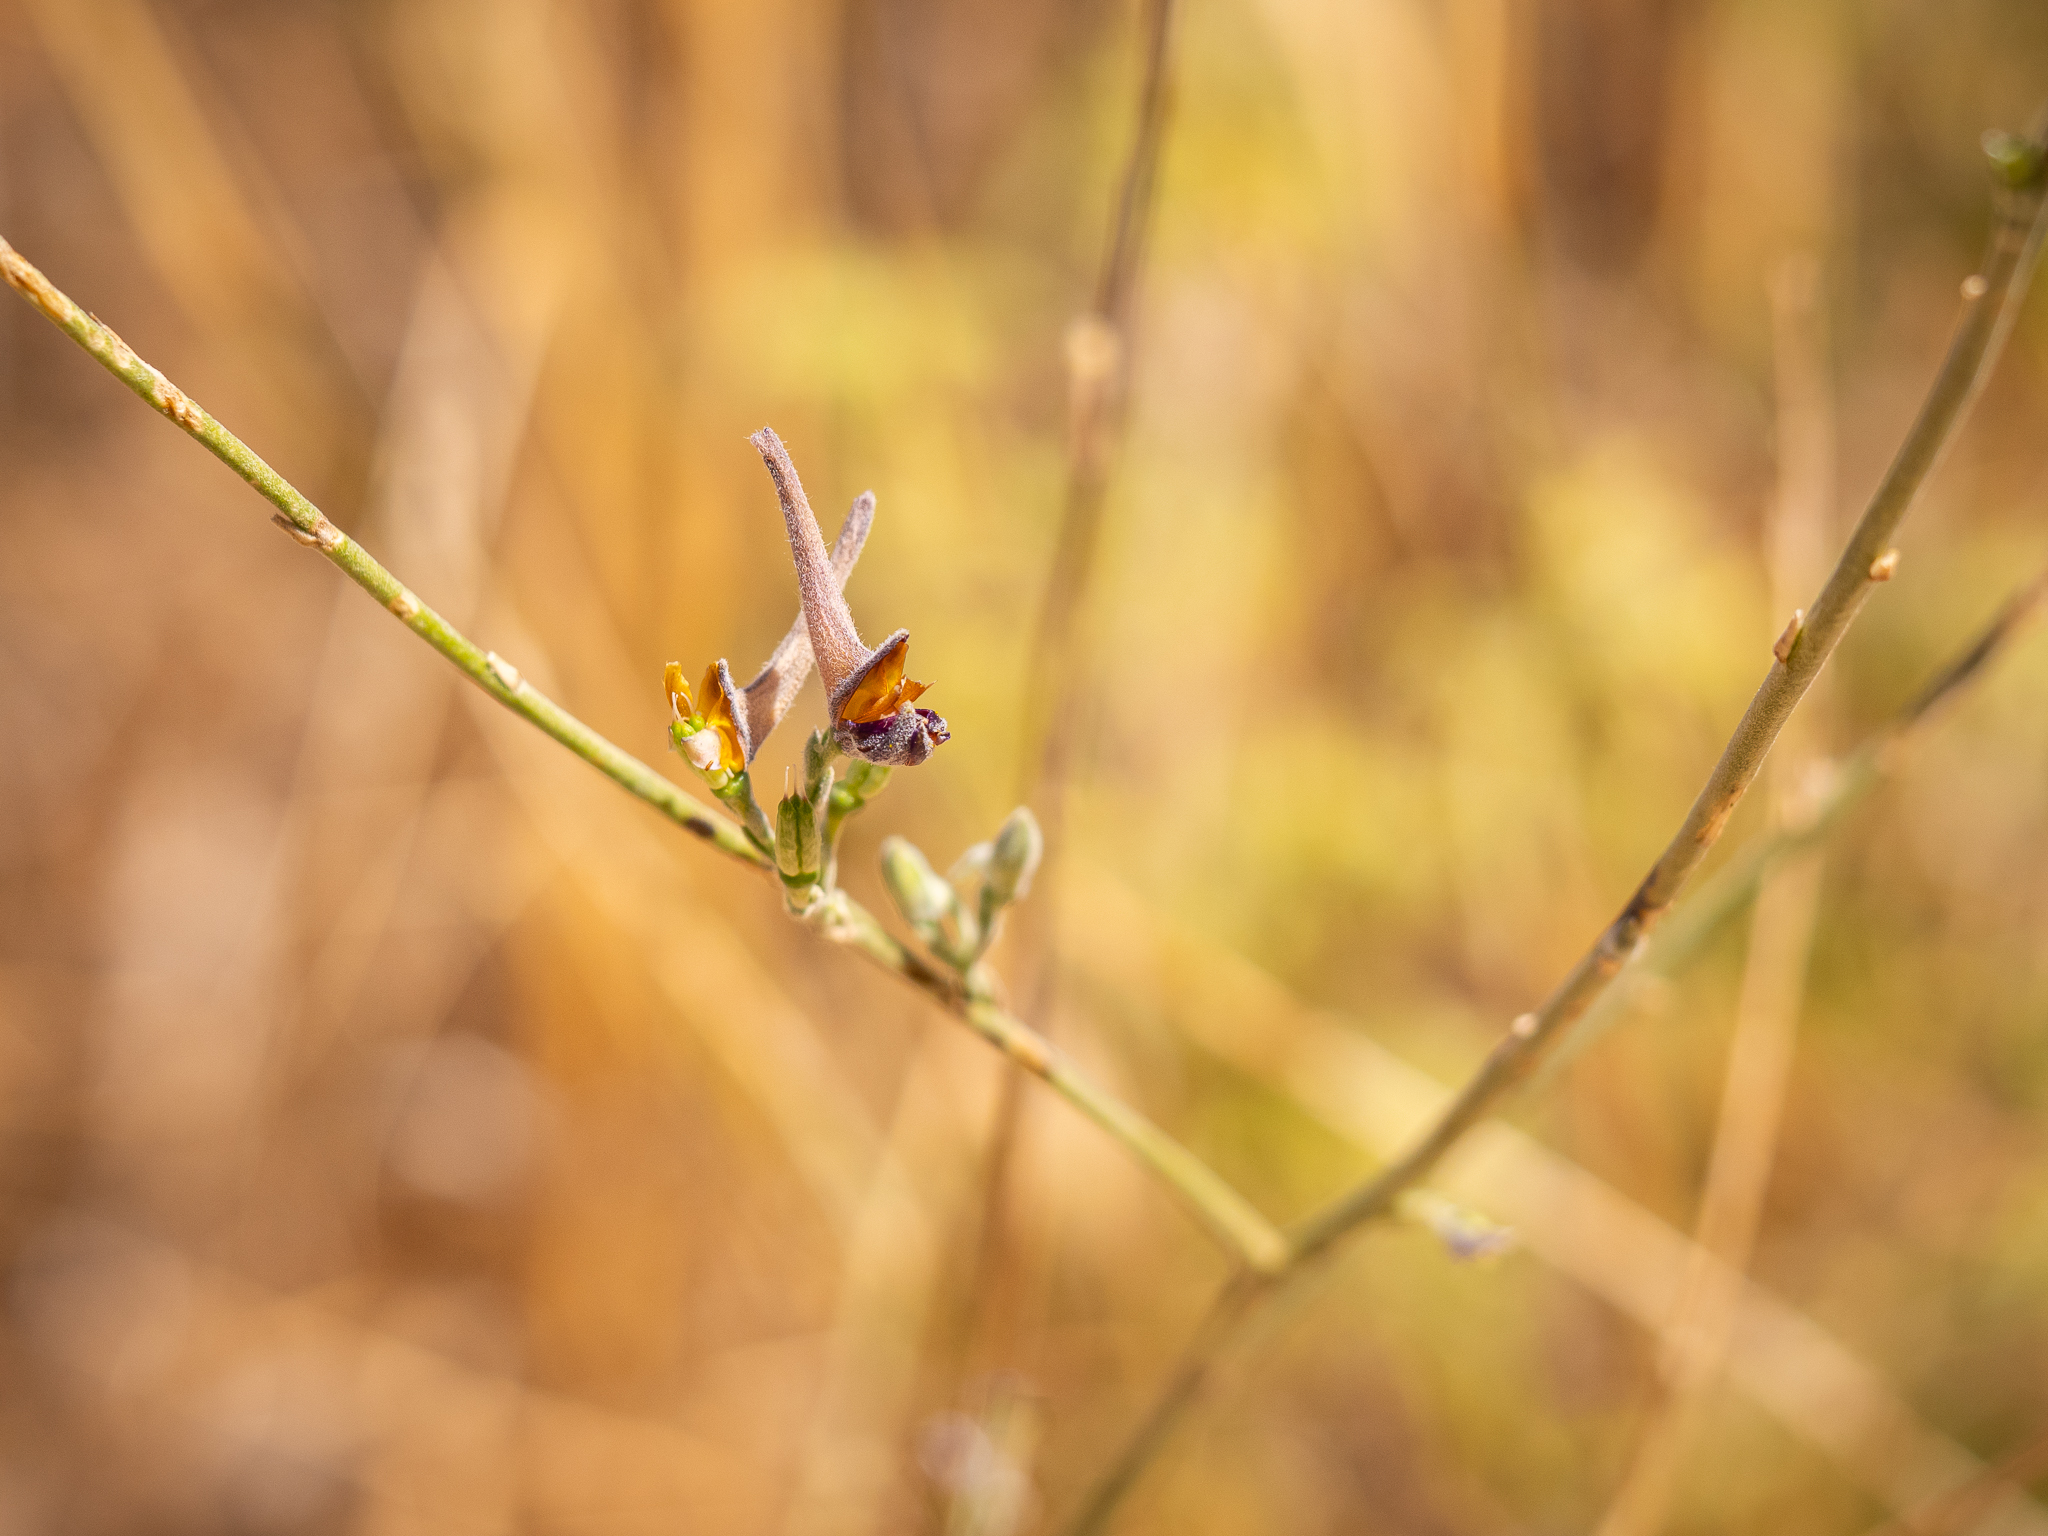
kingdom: Plantae
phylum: Tracheophyta
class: Magnoliopsida
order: Ranunculales
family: Ranunculaceae
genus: Delphinium
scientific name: Delphinium peregrinum
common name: Violet larkspur
